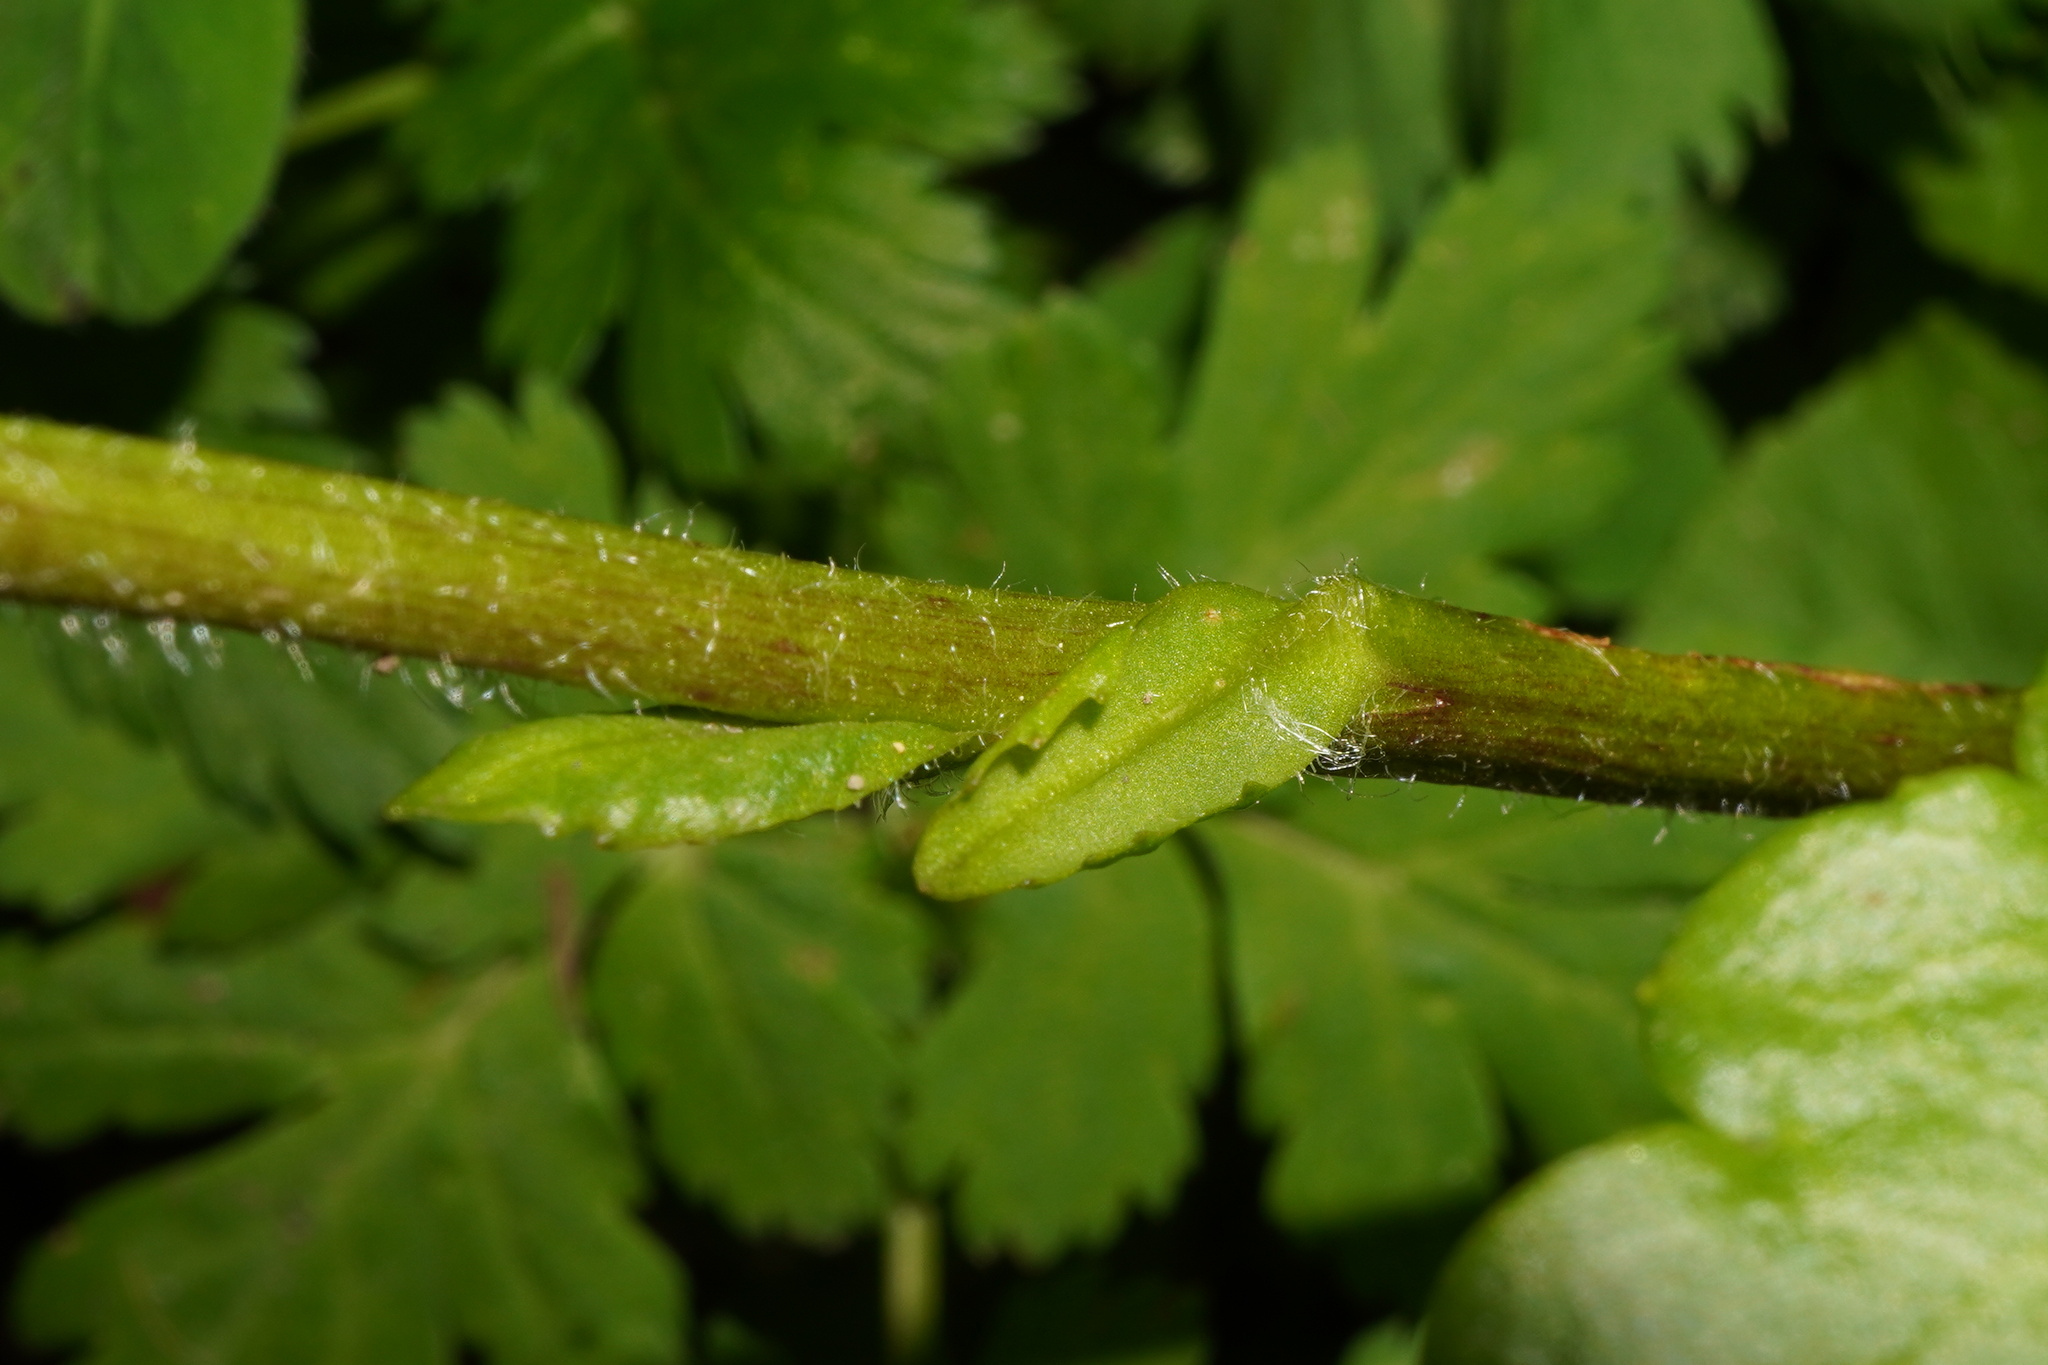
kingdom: Plantae
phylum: Tracheophyta
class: Magnoliopsida
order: Lamiales
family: Plantaginaceae
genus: Wulfenia
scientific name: Wulfenia carinthiaca
